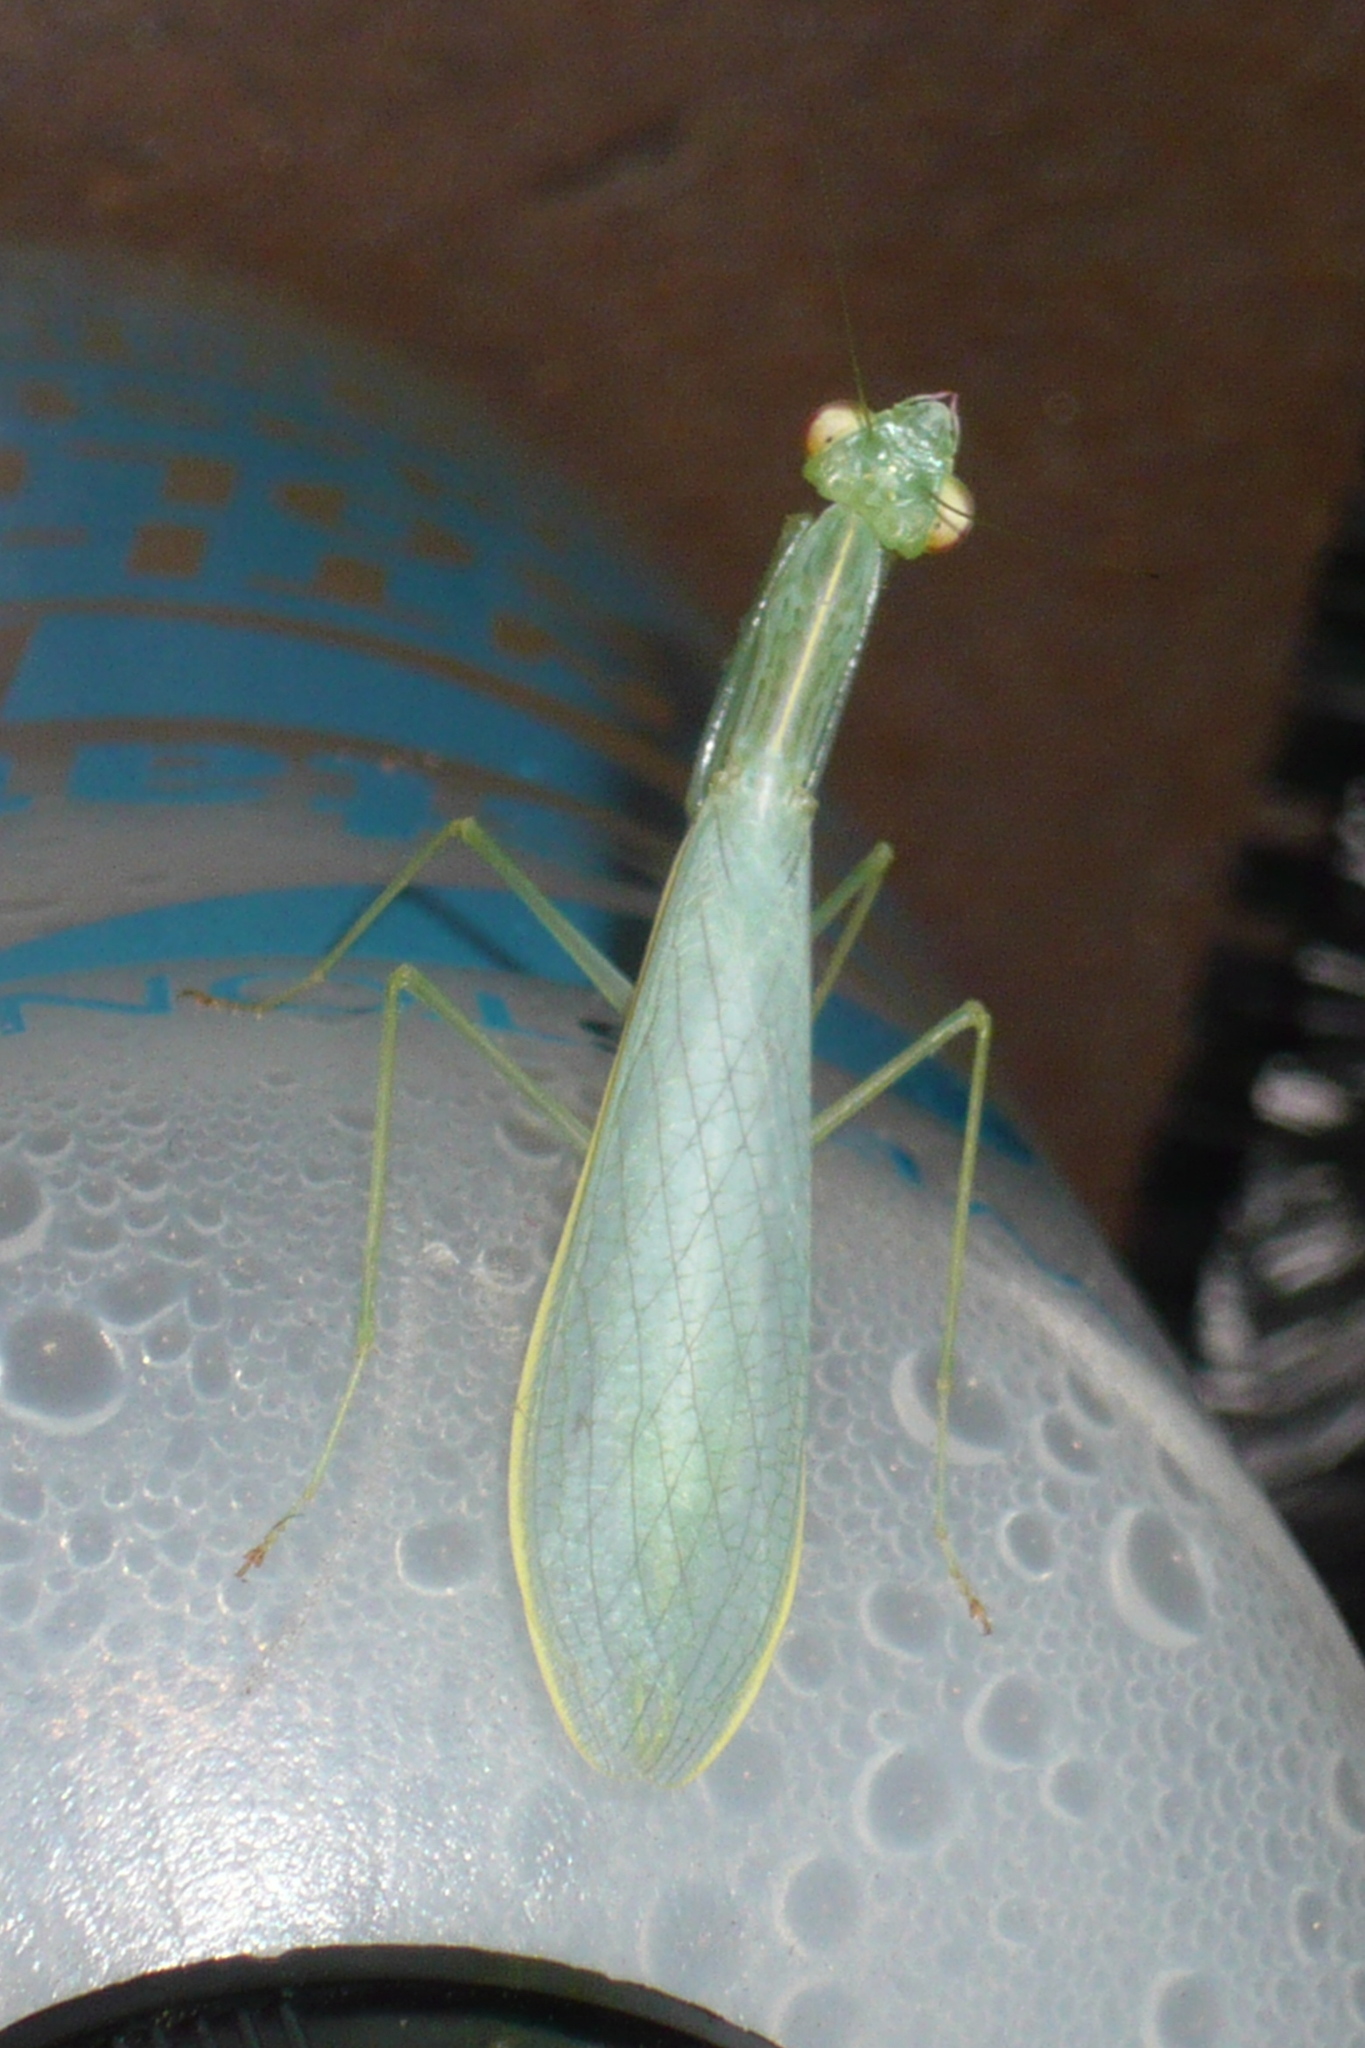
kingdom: Animalia
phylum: Arthropoda
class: Insecta
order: Mantodea
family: Nanomantidae
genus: Kongobatha
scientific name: Kongobatha diademata
